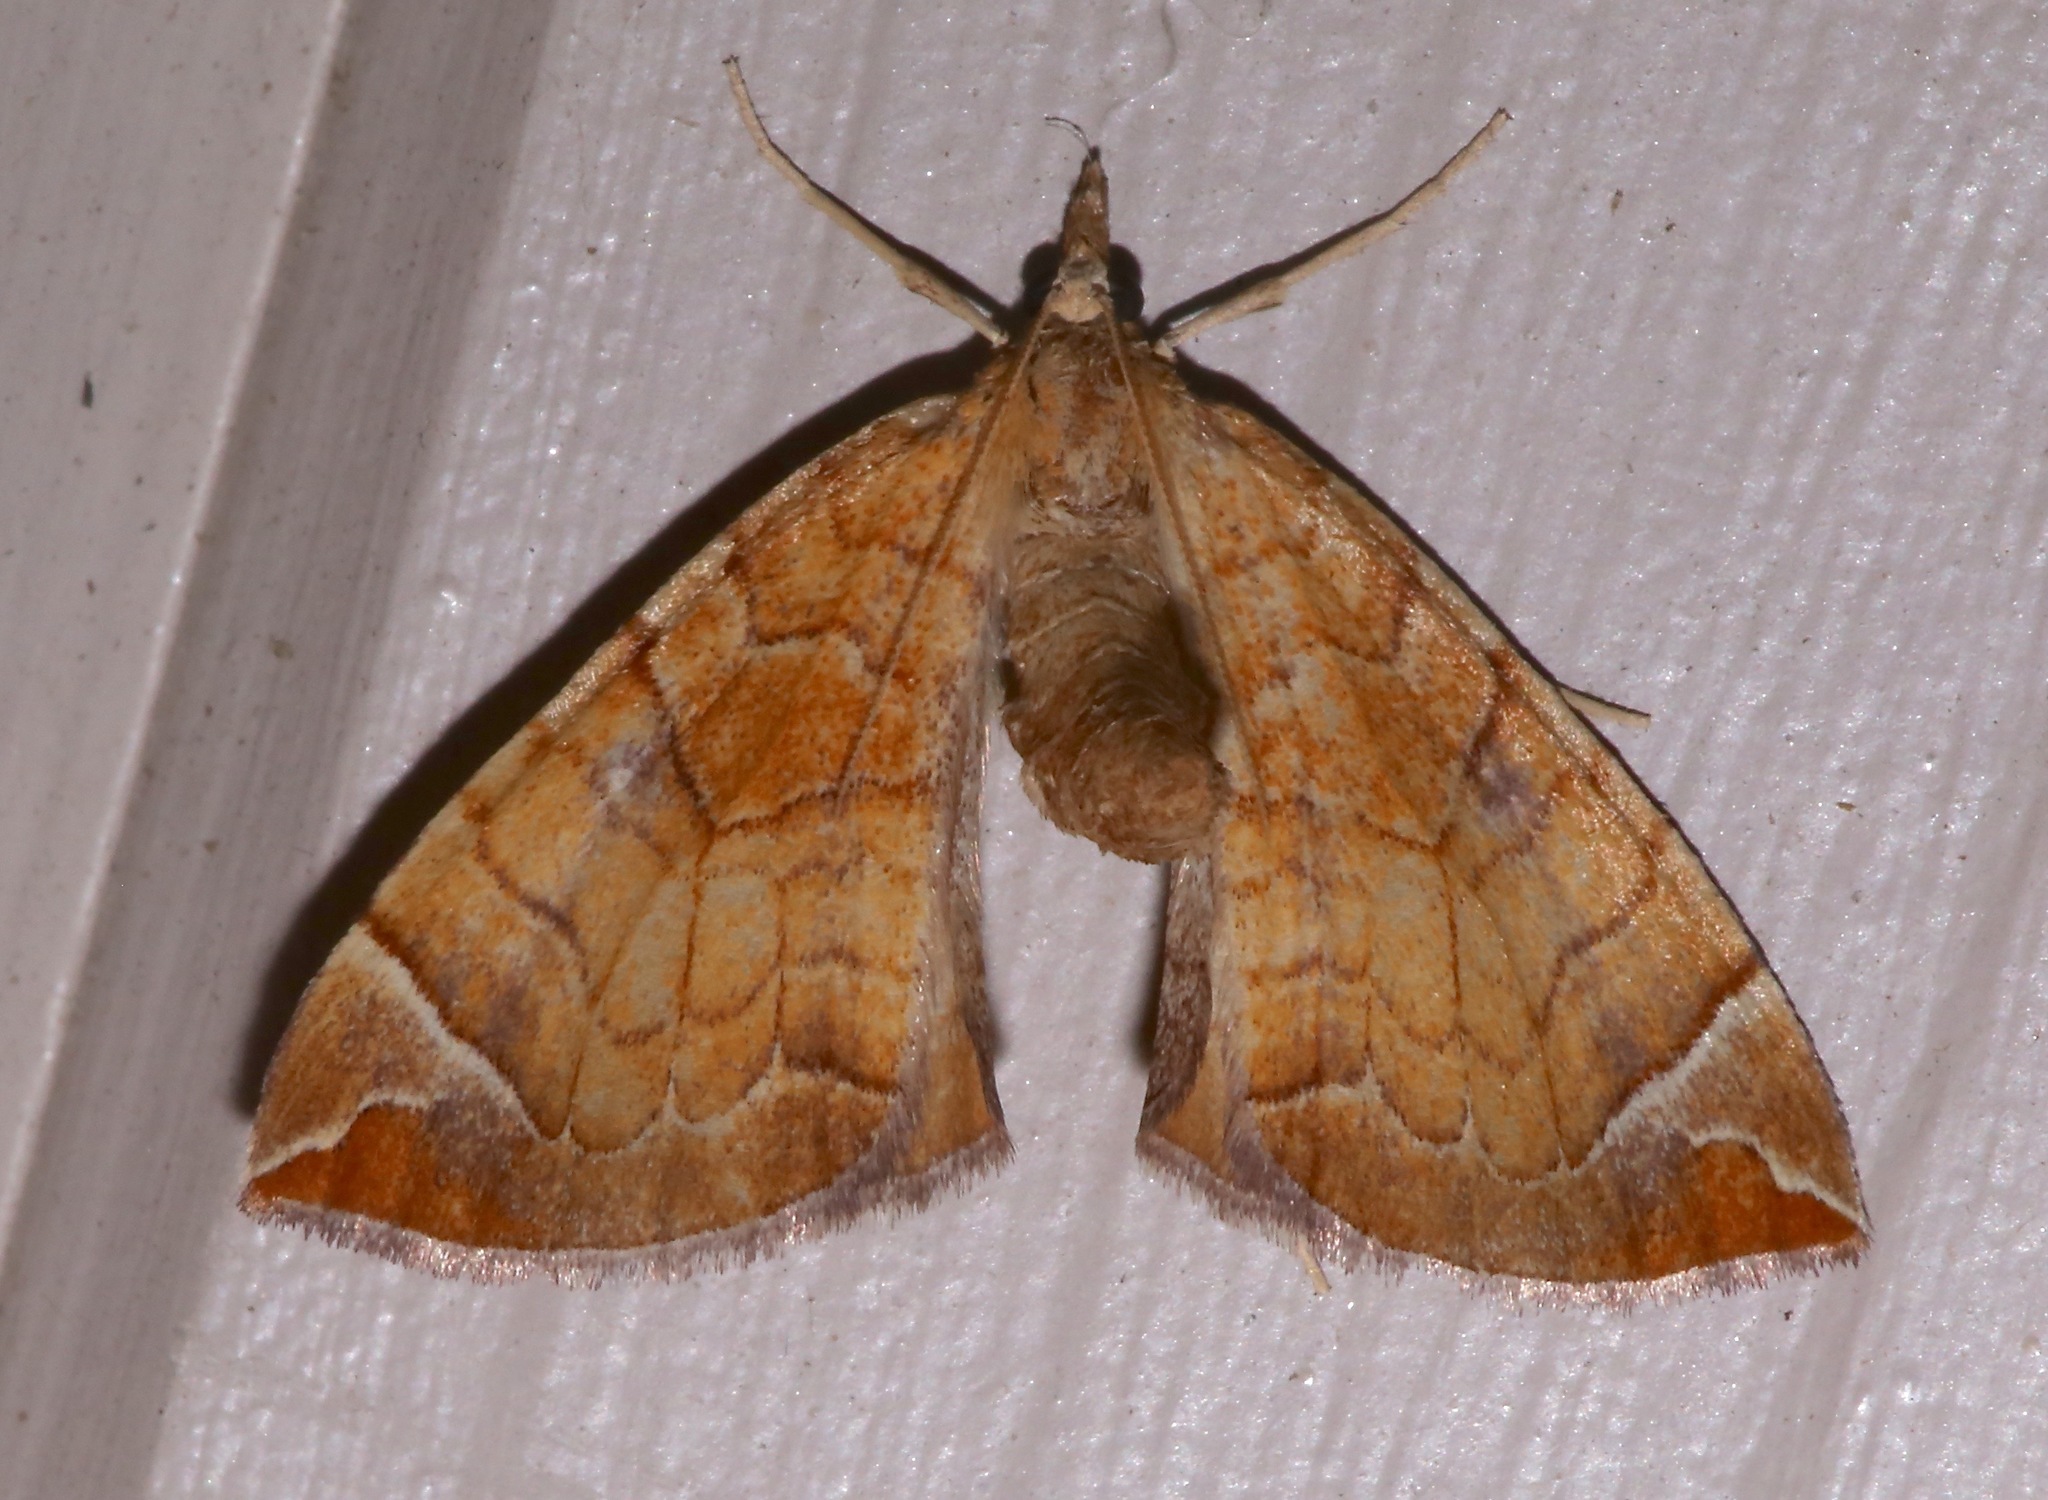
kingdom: Animalia
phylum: Arthropoda
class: Insecta
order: Lepidoptera
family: Geometridae
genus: Eulithis
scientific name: Eulithis testata
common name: Chevron
